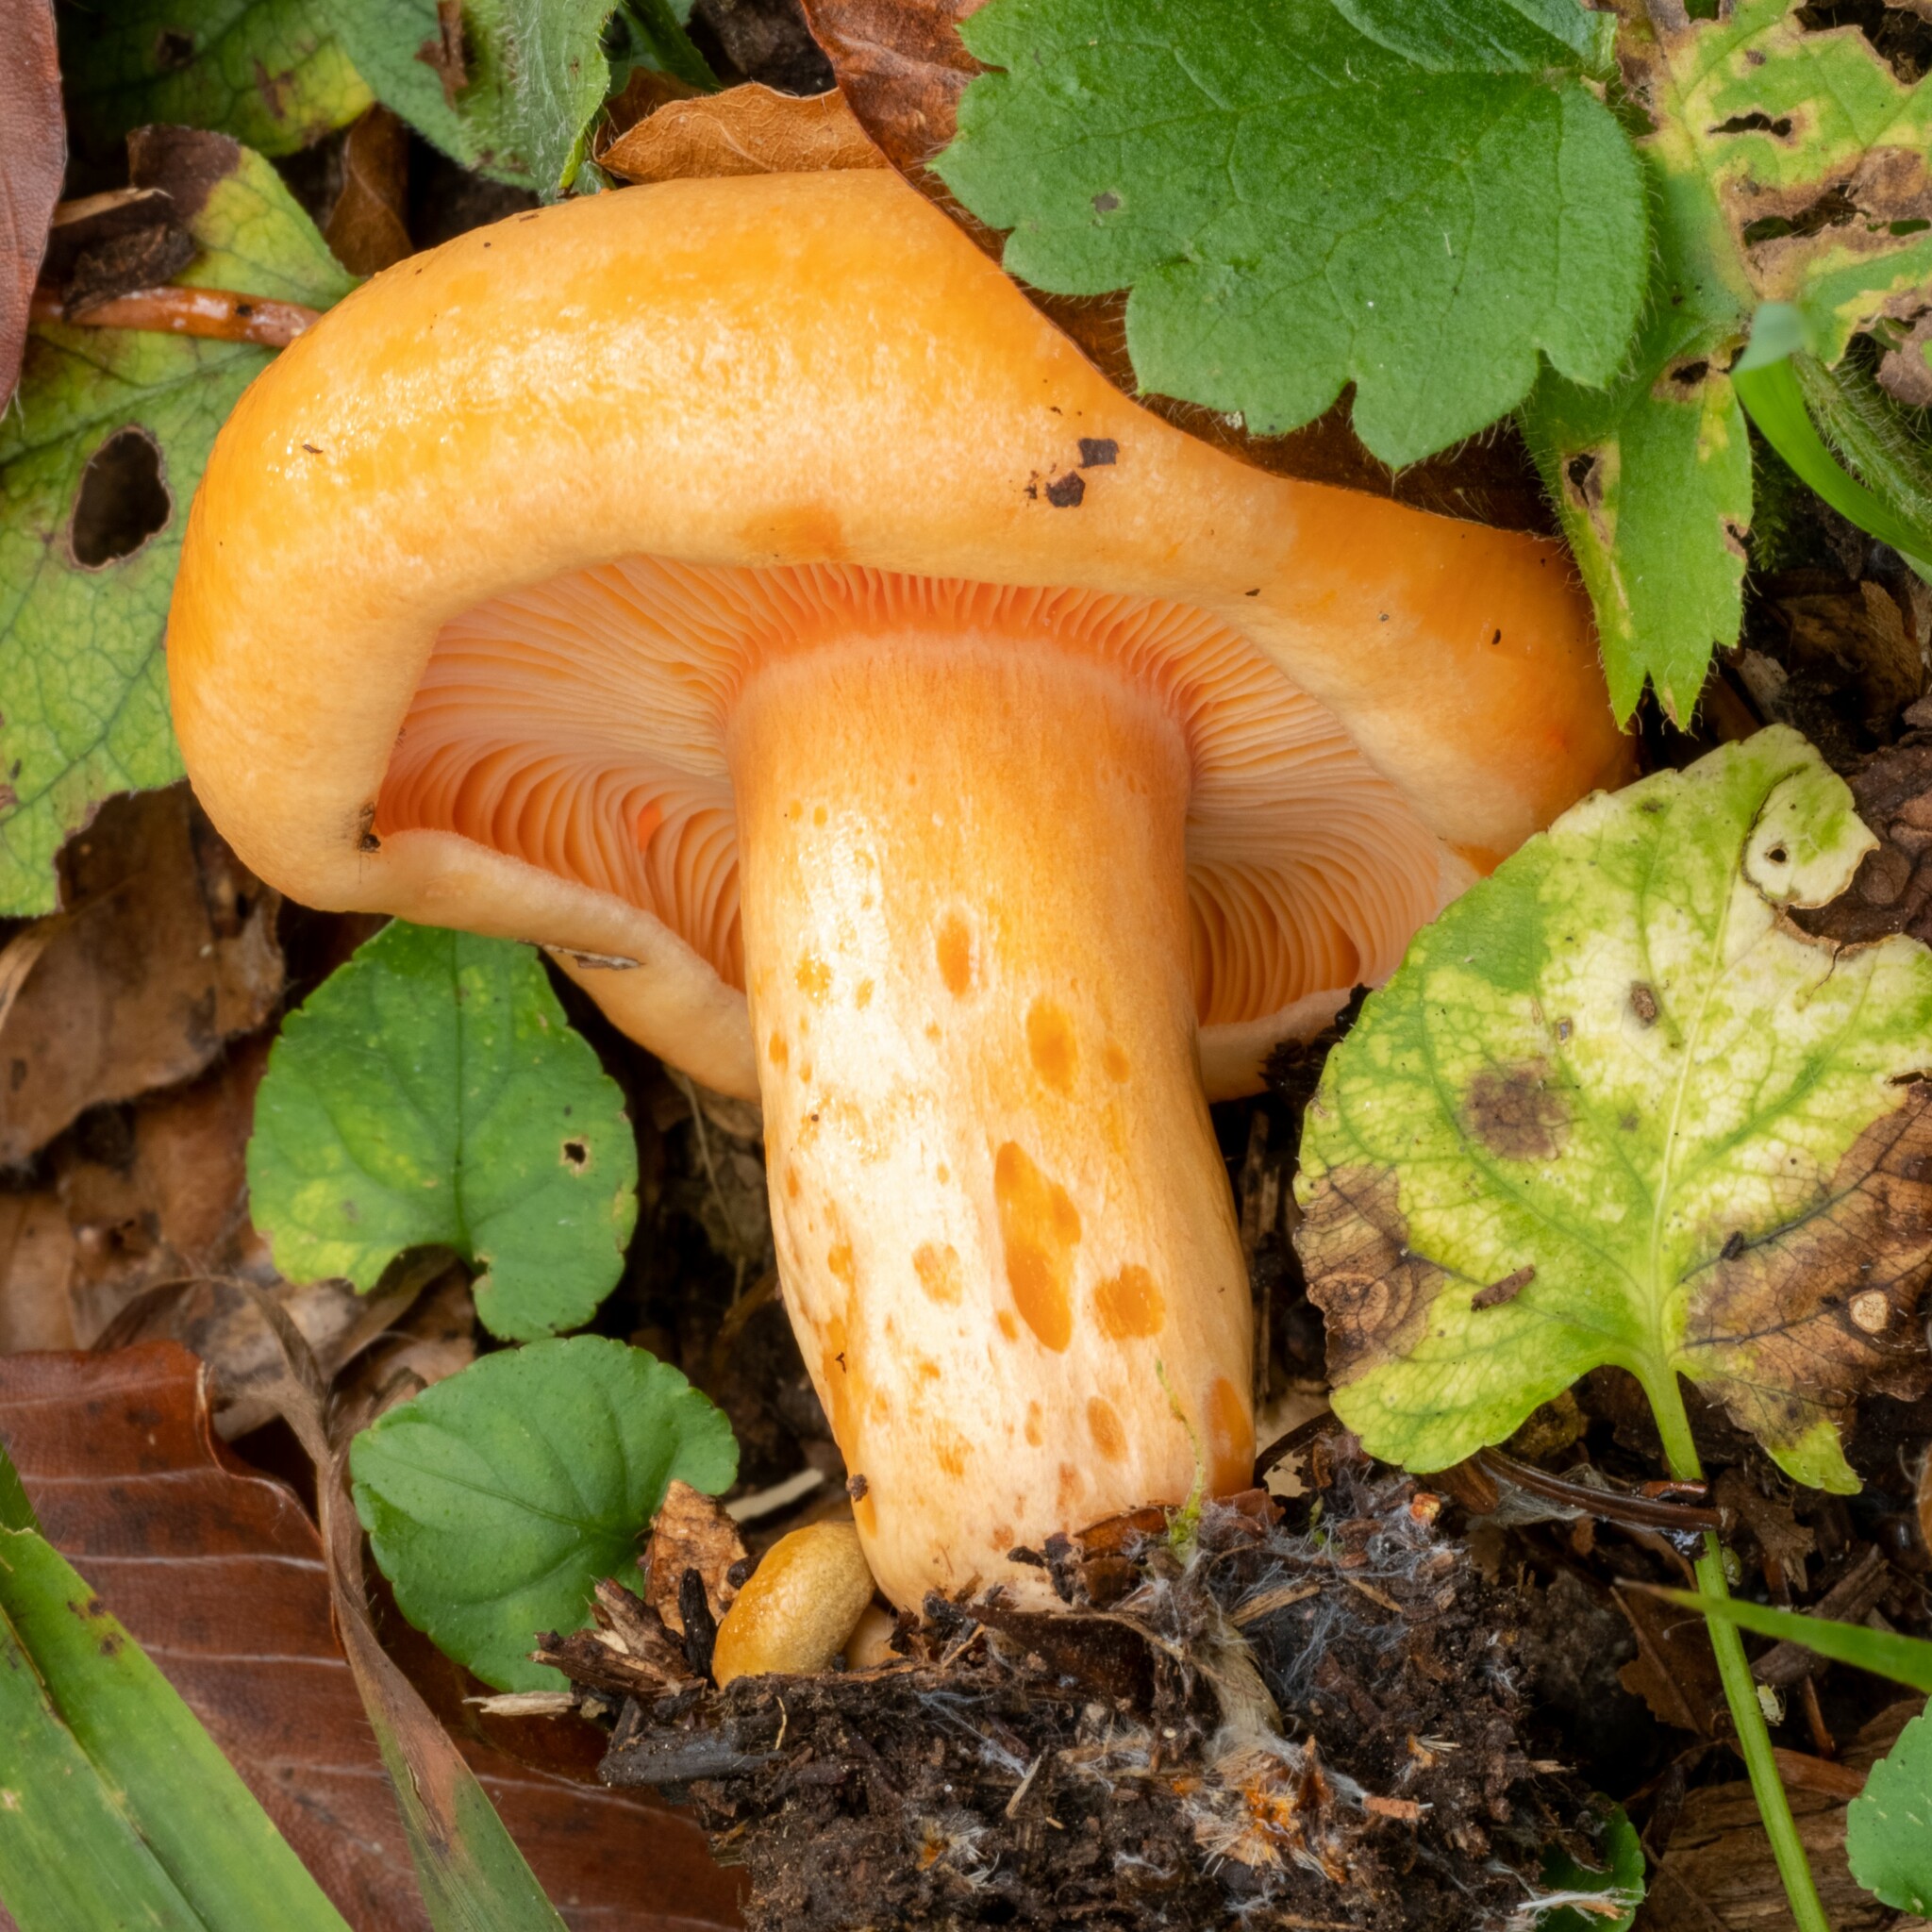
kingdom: Fungi
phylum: Basidiomycota
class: Agaricomycetes
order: Russulales
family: Russulaceae
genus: Lactarius
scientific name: Lactarius salmonicolor
